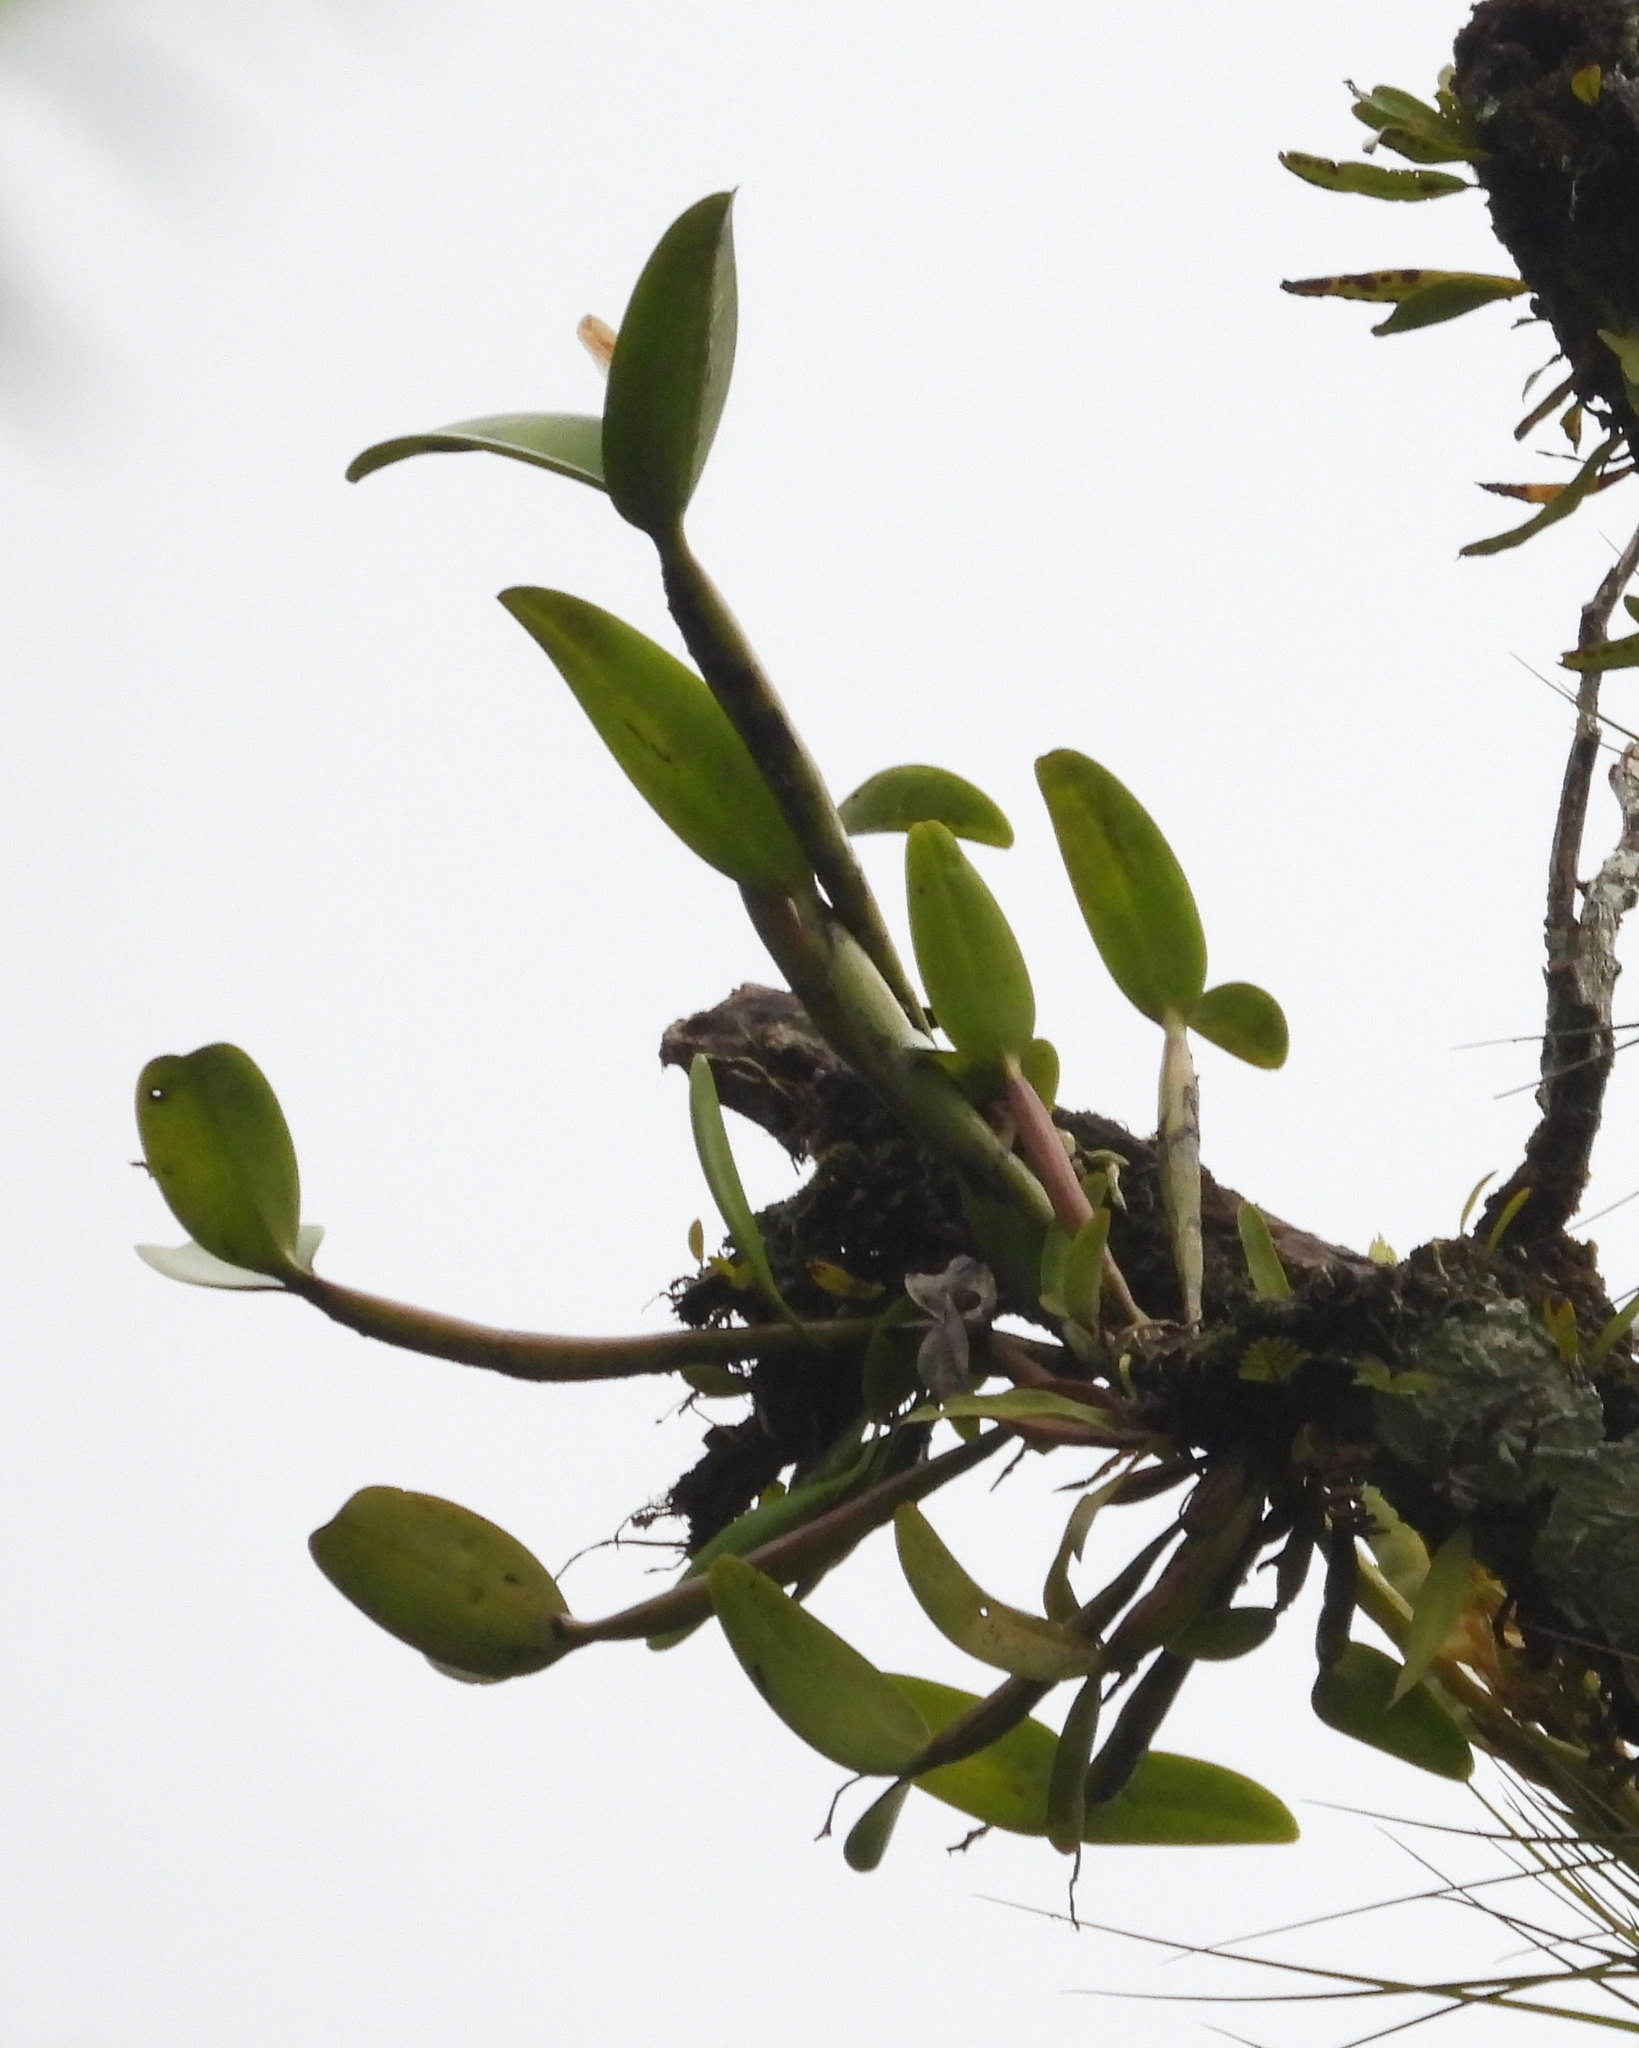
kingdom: Plantae
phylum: Tracheophyta
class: Liliopsida
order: Asparagales
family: Orchidaceae
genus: Guarianthe
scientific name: Guarianthe aurantiaca
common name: Orange cattleya
